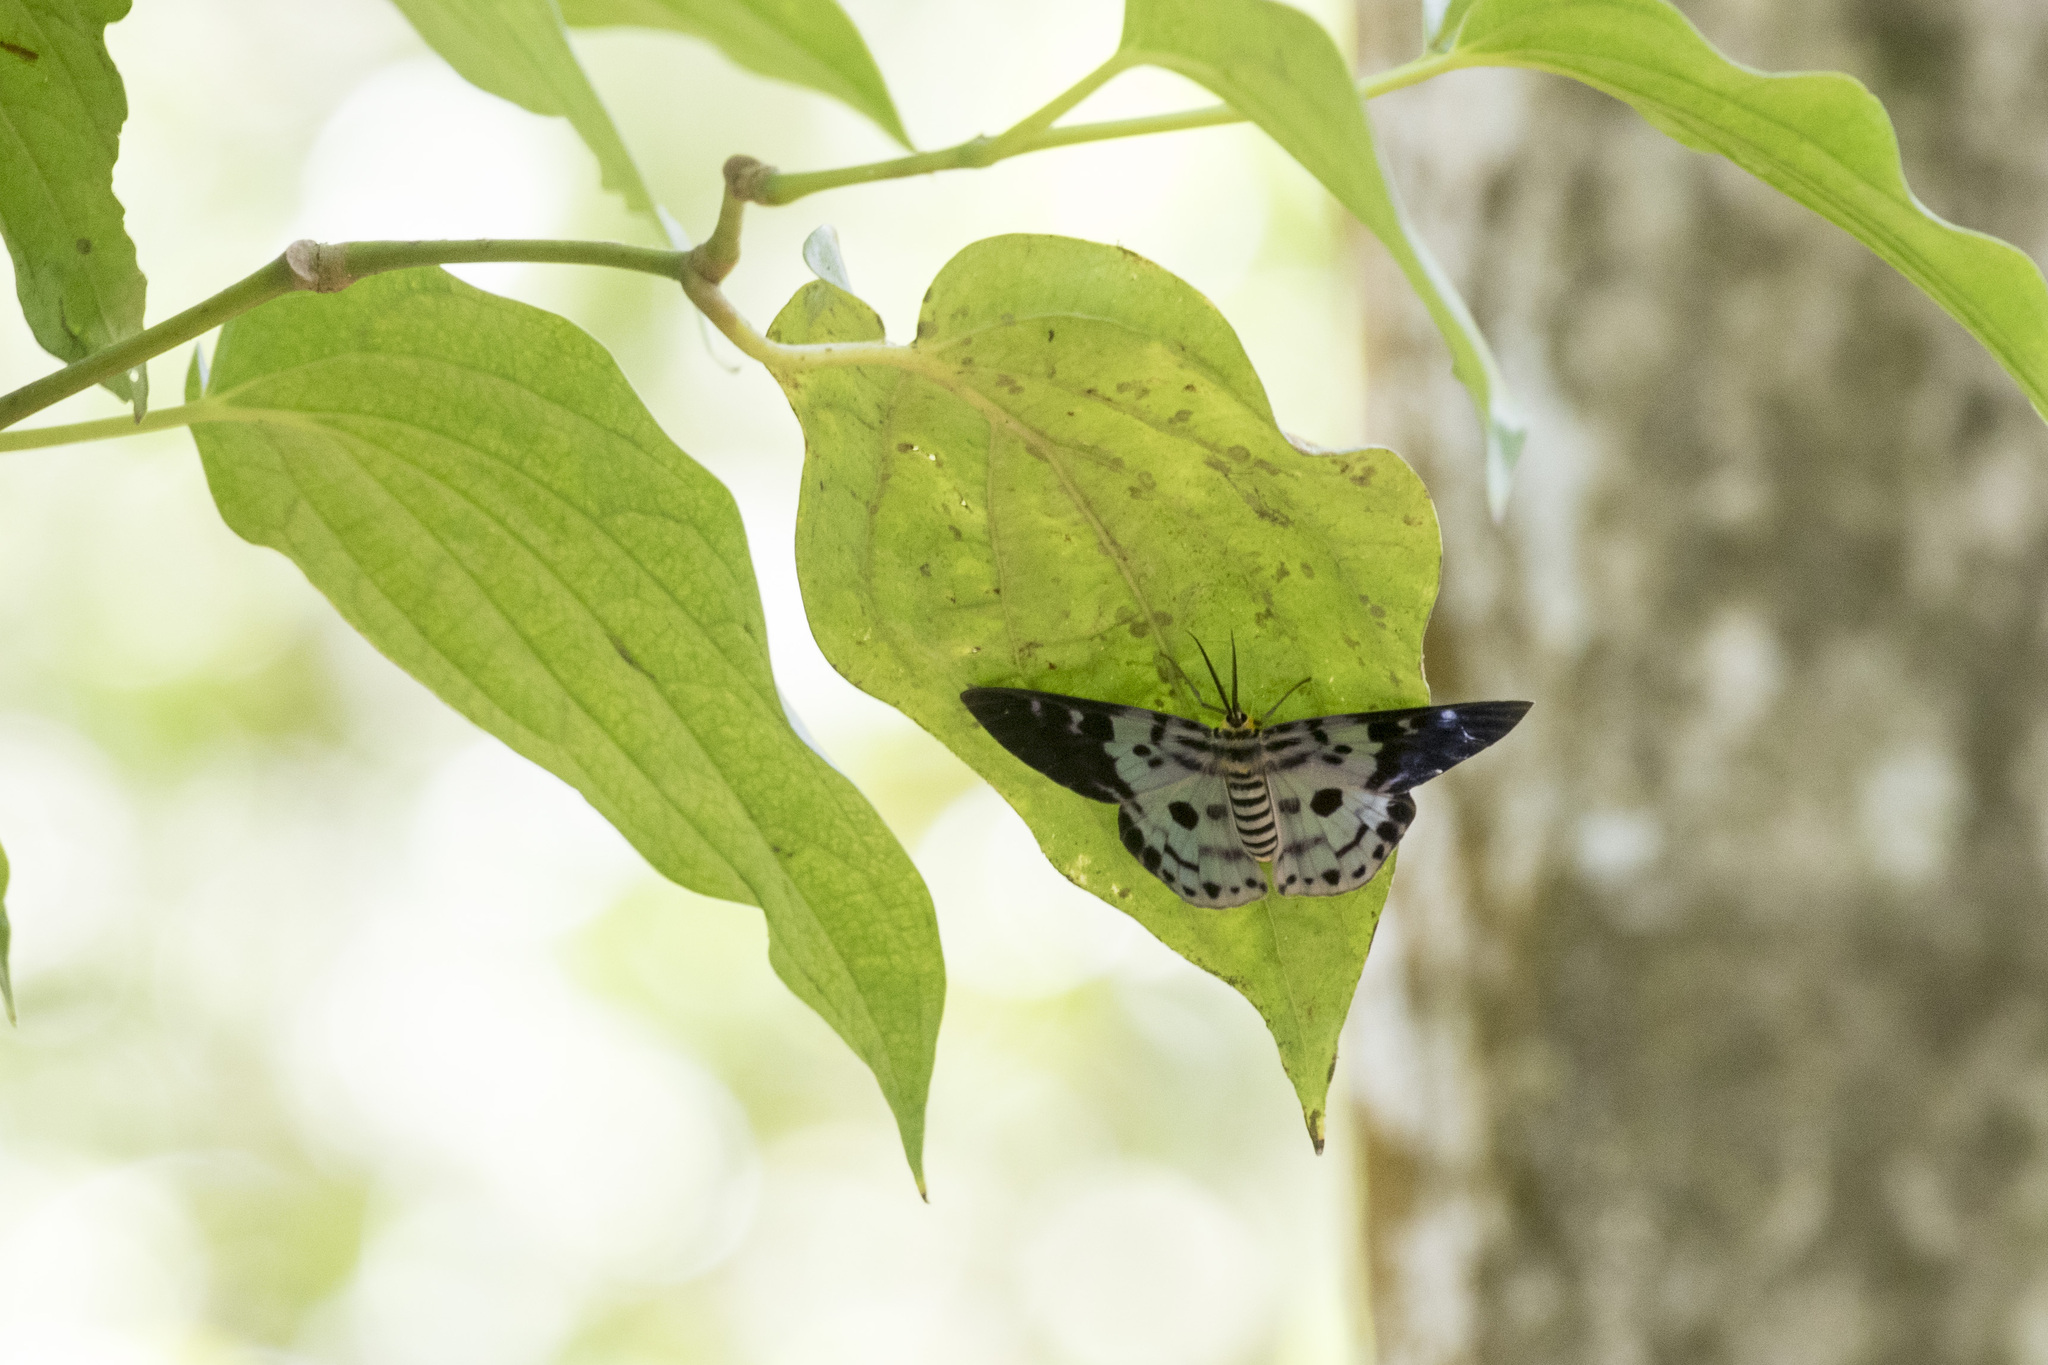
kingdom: Animalia
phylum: Arthropoda
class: Insecta
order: Lepidoptera
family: Geometridae
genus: Dysphania
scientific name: Dysphania percota
